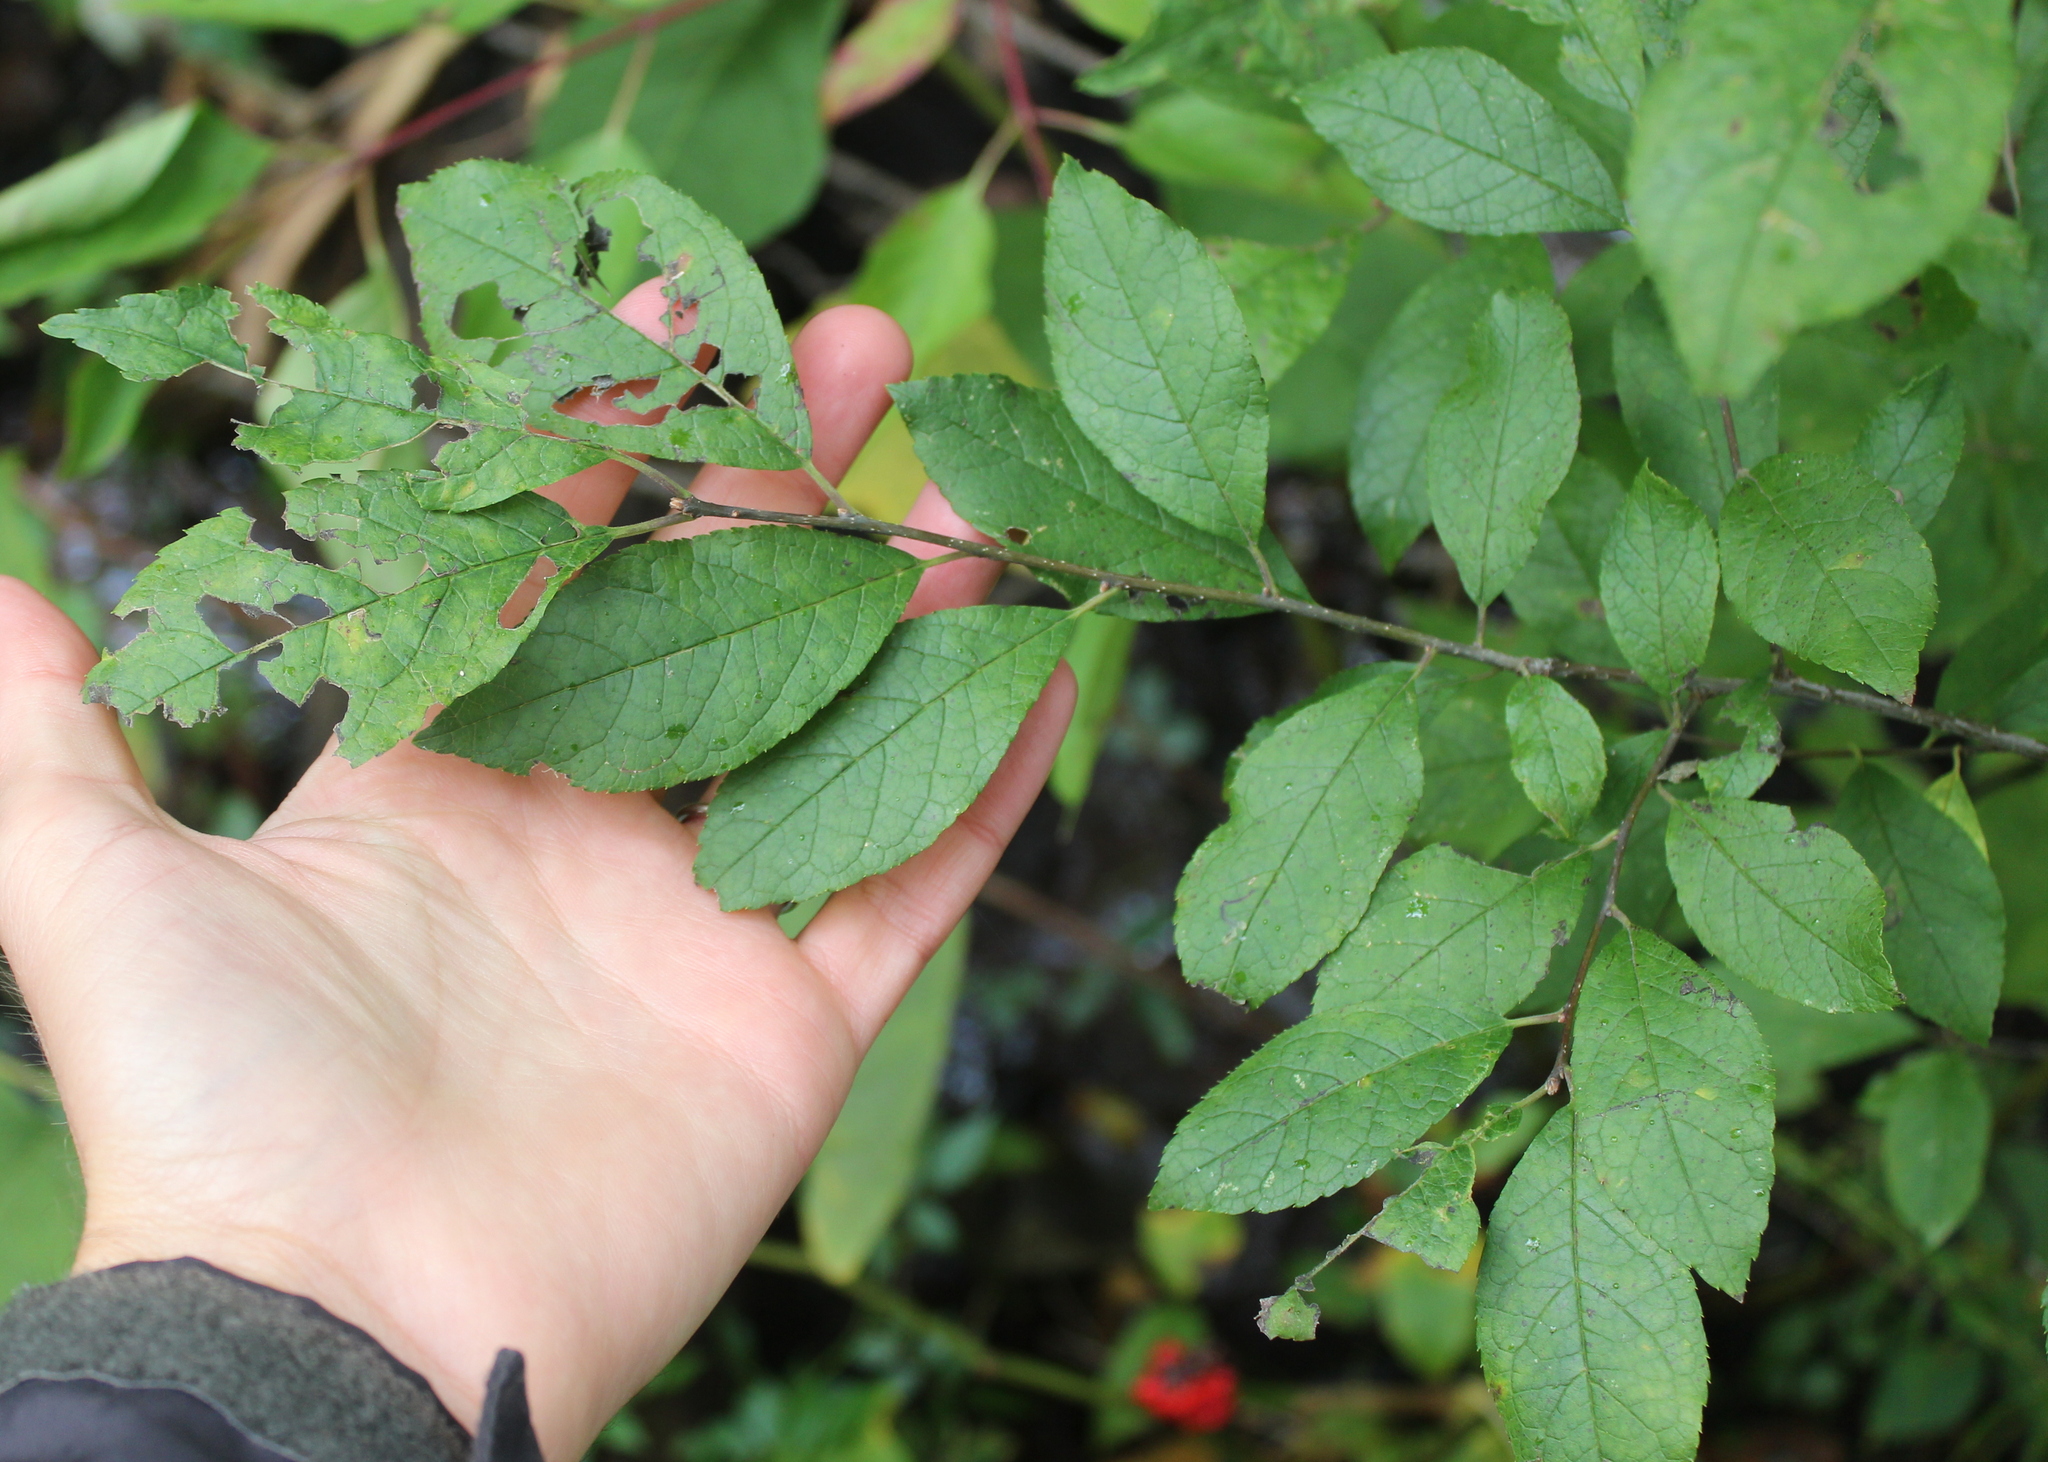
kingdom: Plantae
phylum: Tracheophyta
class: Magnoliopsida
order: Aquifoliales
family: Aquifoliaceae
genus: Ilex
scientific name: Ilex verticillata
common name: Virginia winterberry
